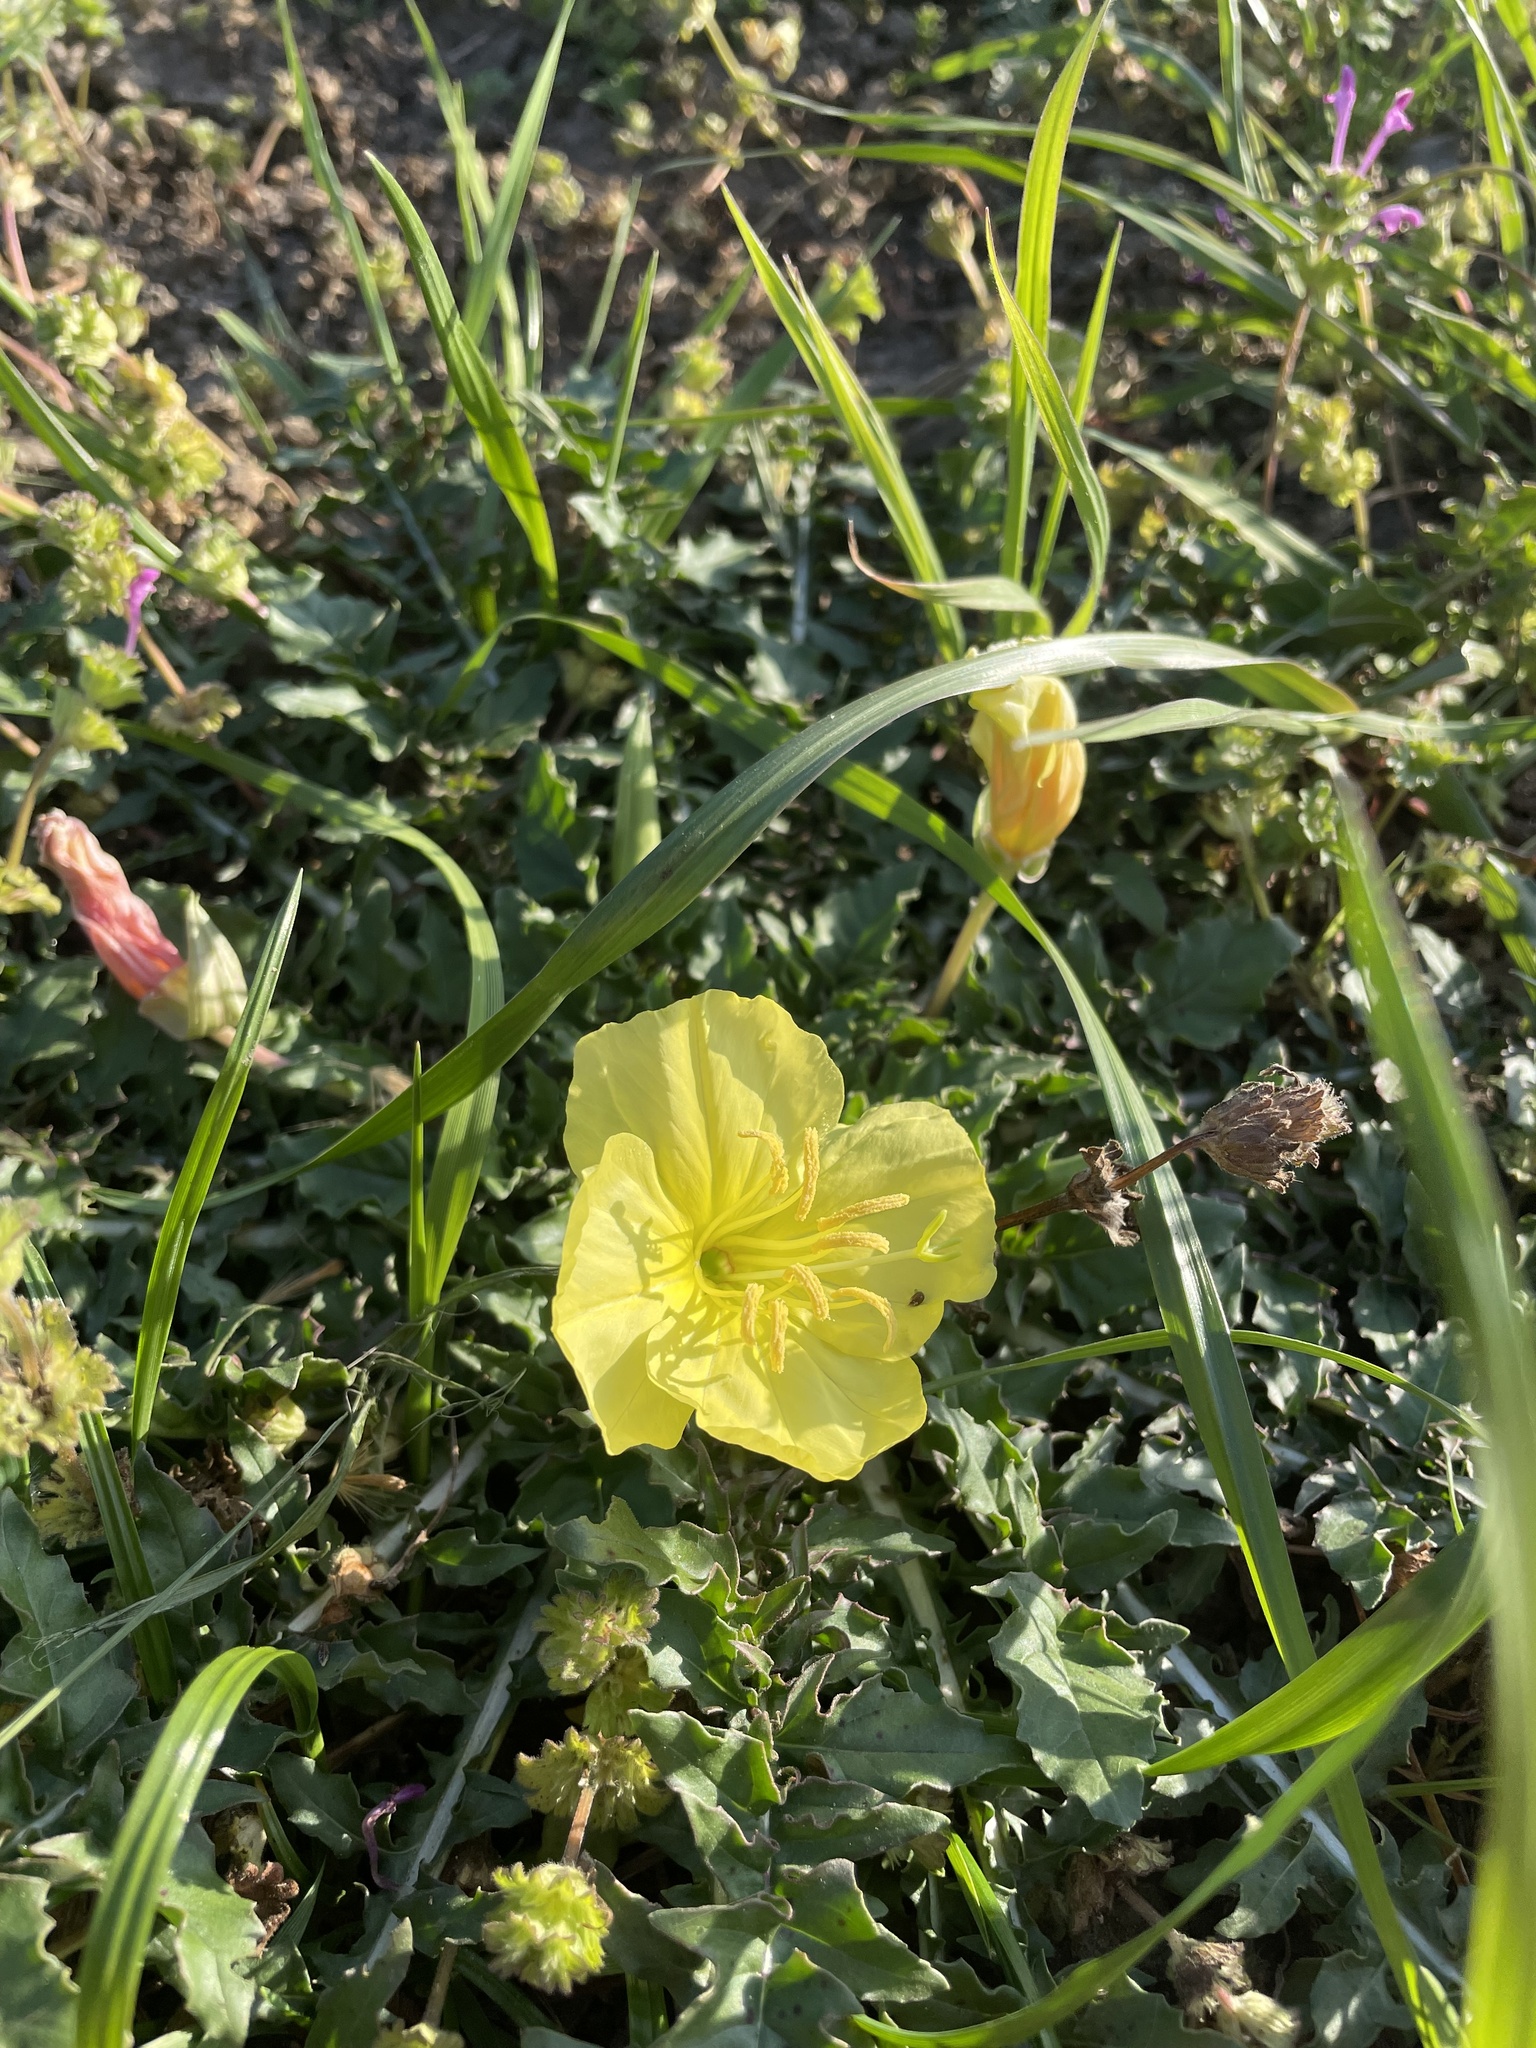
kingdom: Plantae
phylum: Tracheophyta
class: Magnoliopsida
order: Myrtales
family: Onagraceae
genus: Oenothera
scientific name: Oenothera triloba
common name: Sessile evening-primrose
